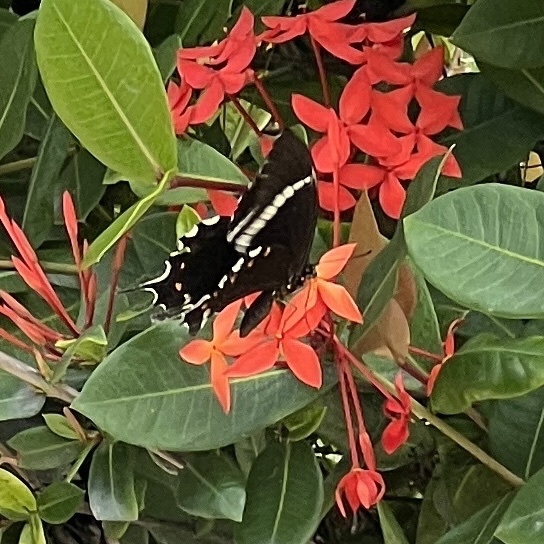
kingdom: Animalia
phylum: Arthropoda
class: Insecta
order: Lepidoptera
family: Papilionidae
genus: Papilio
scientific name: Papilio pelaus
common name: Pelaus swallowtail
